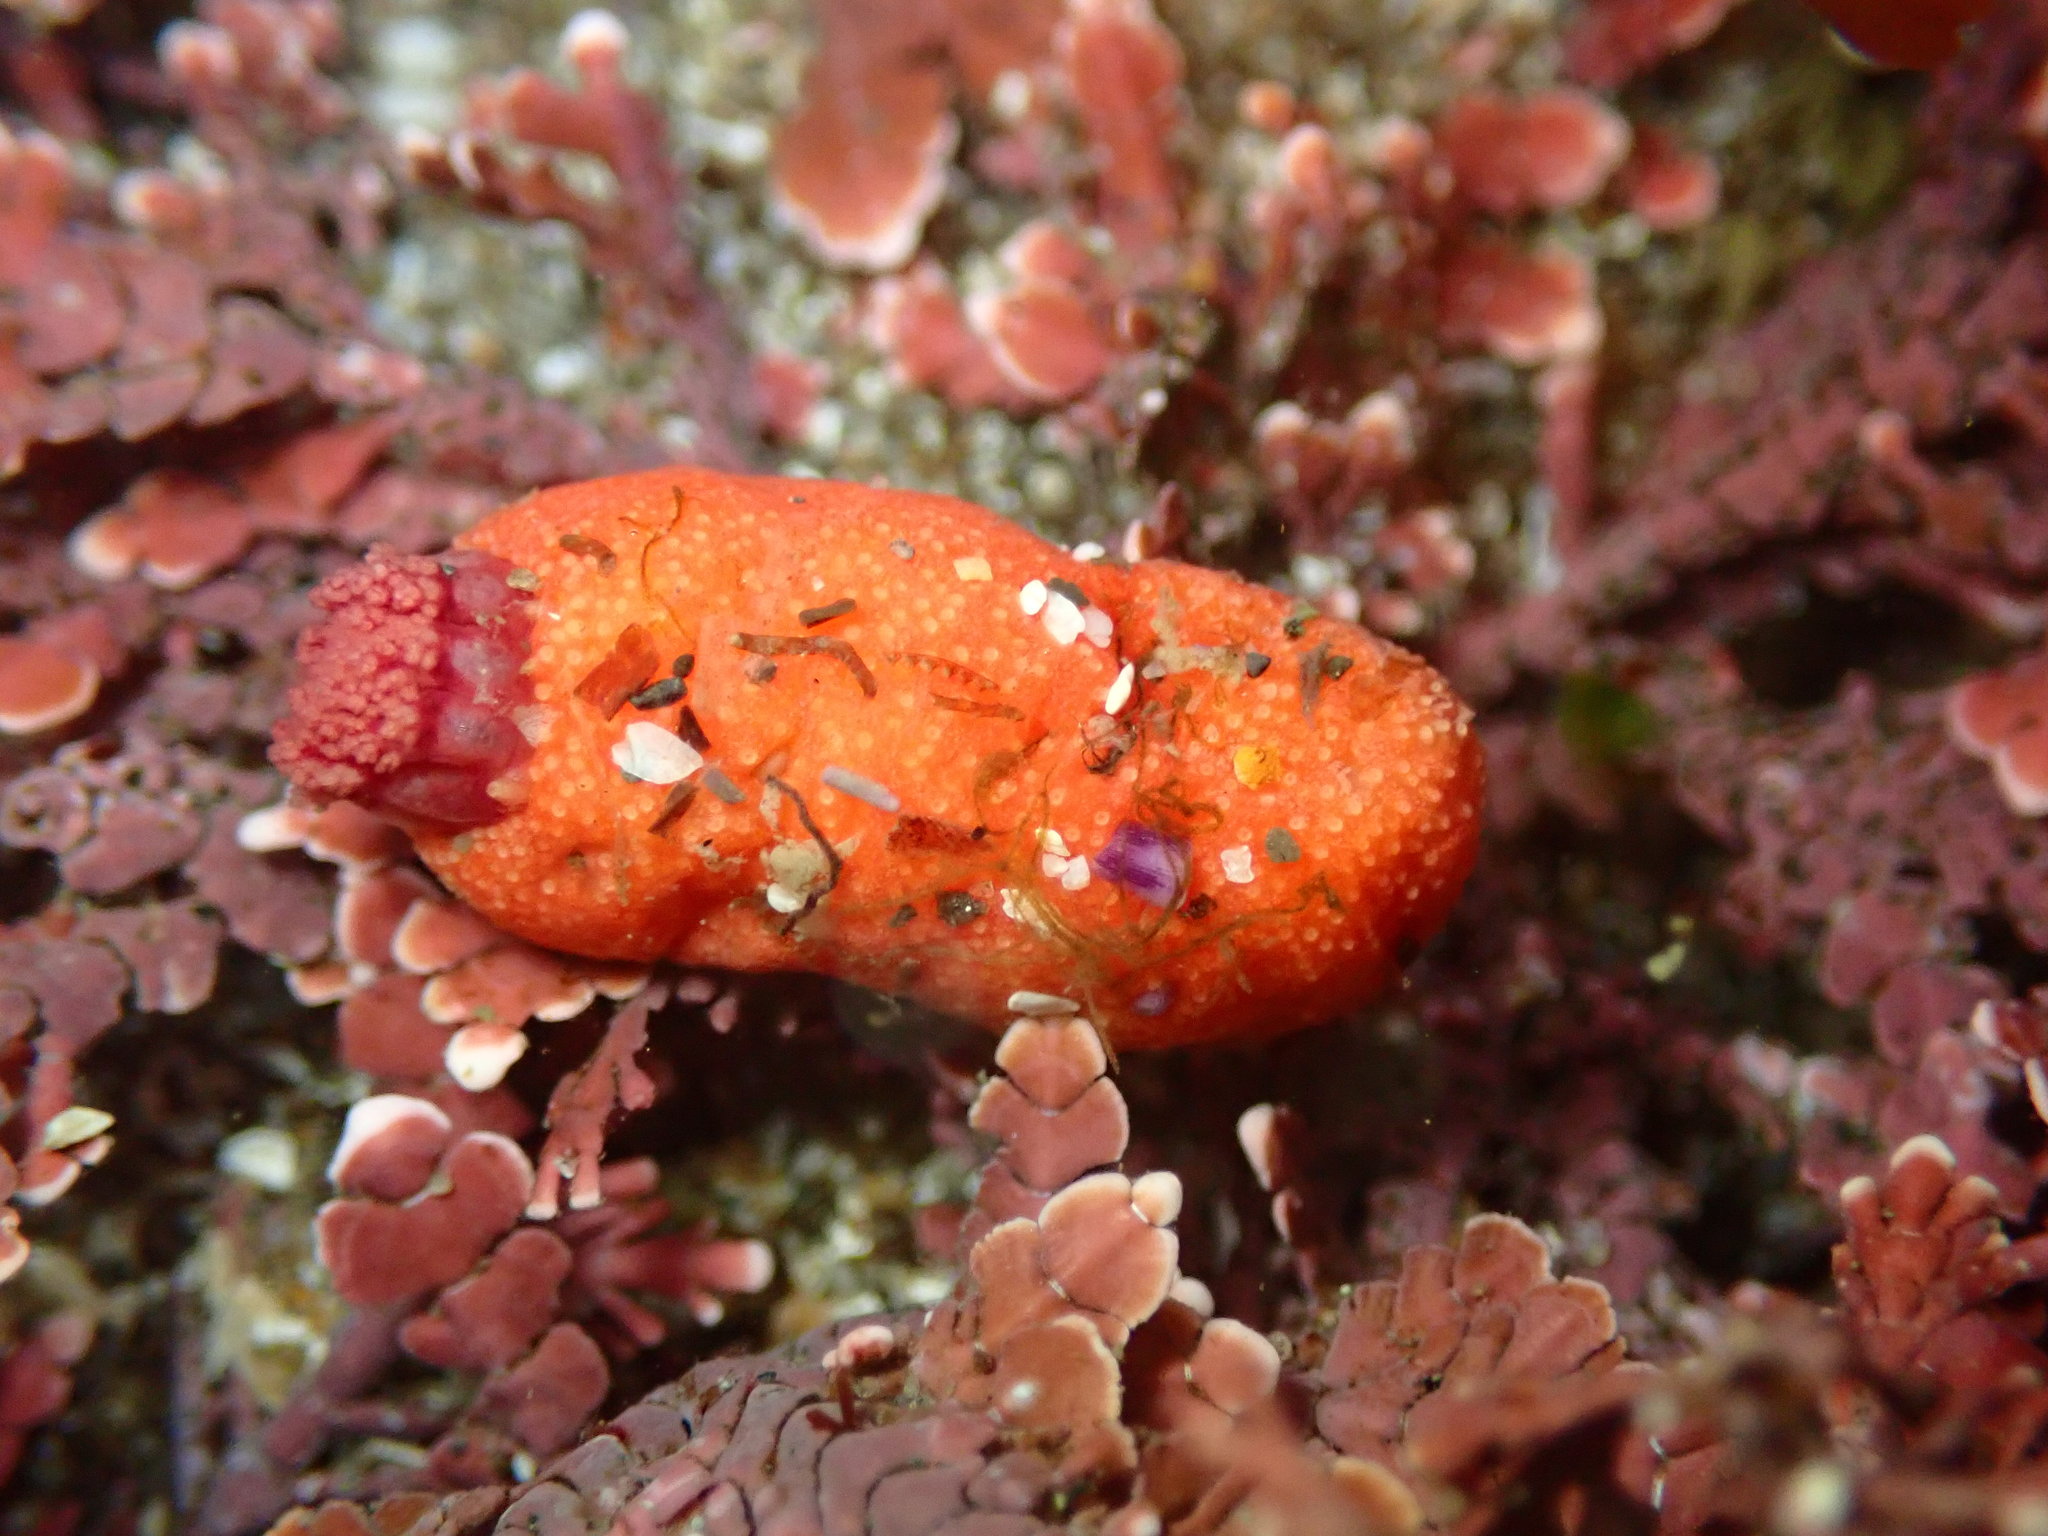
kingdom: Animalia
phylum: Echinodermata
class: Holothuroidea
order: Dendrochirotida
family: Psolidae
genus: Lissothuria
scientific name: Lissothuria nutriens
